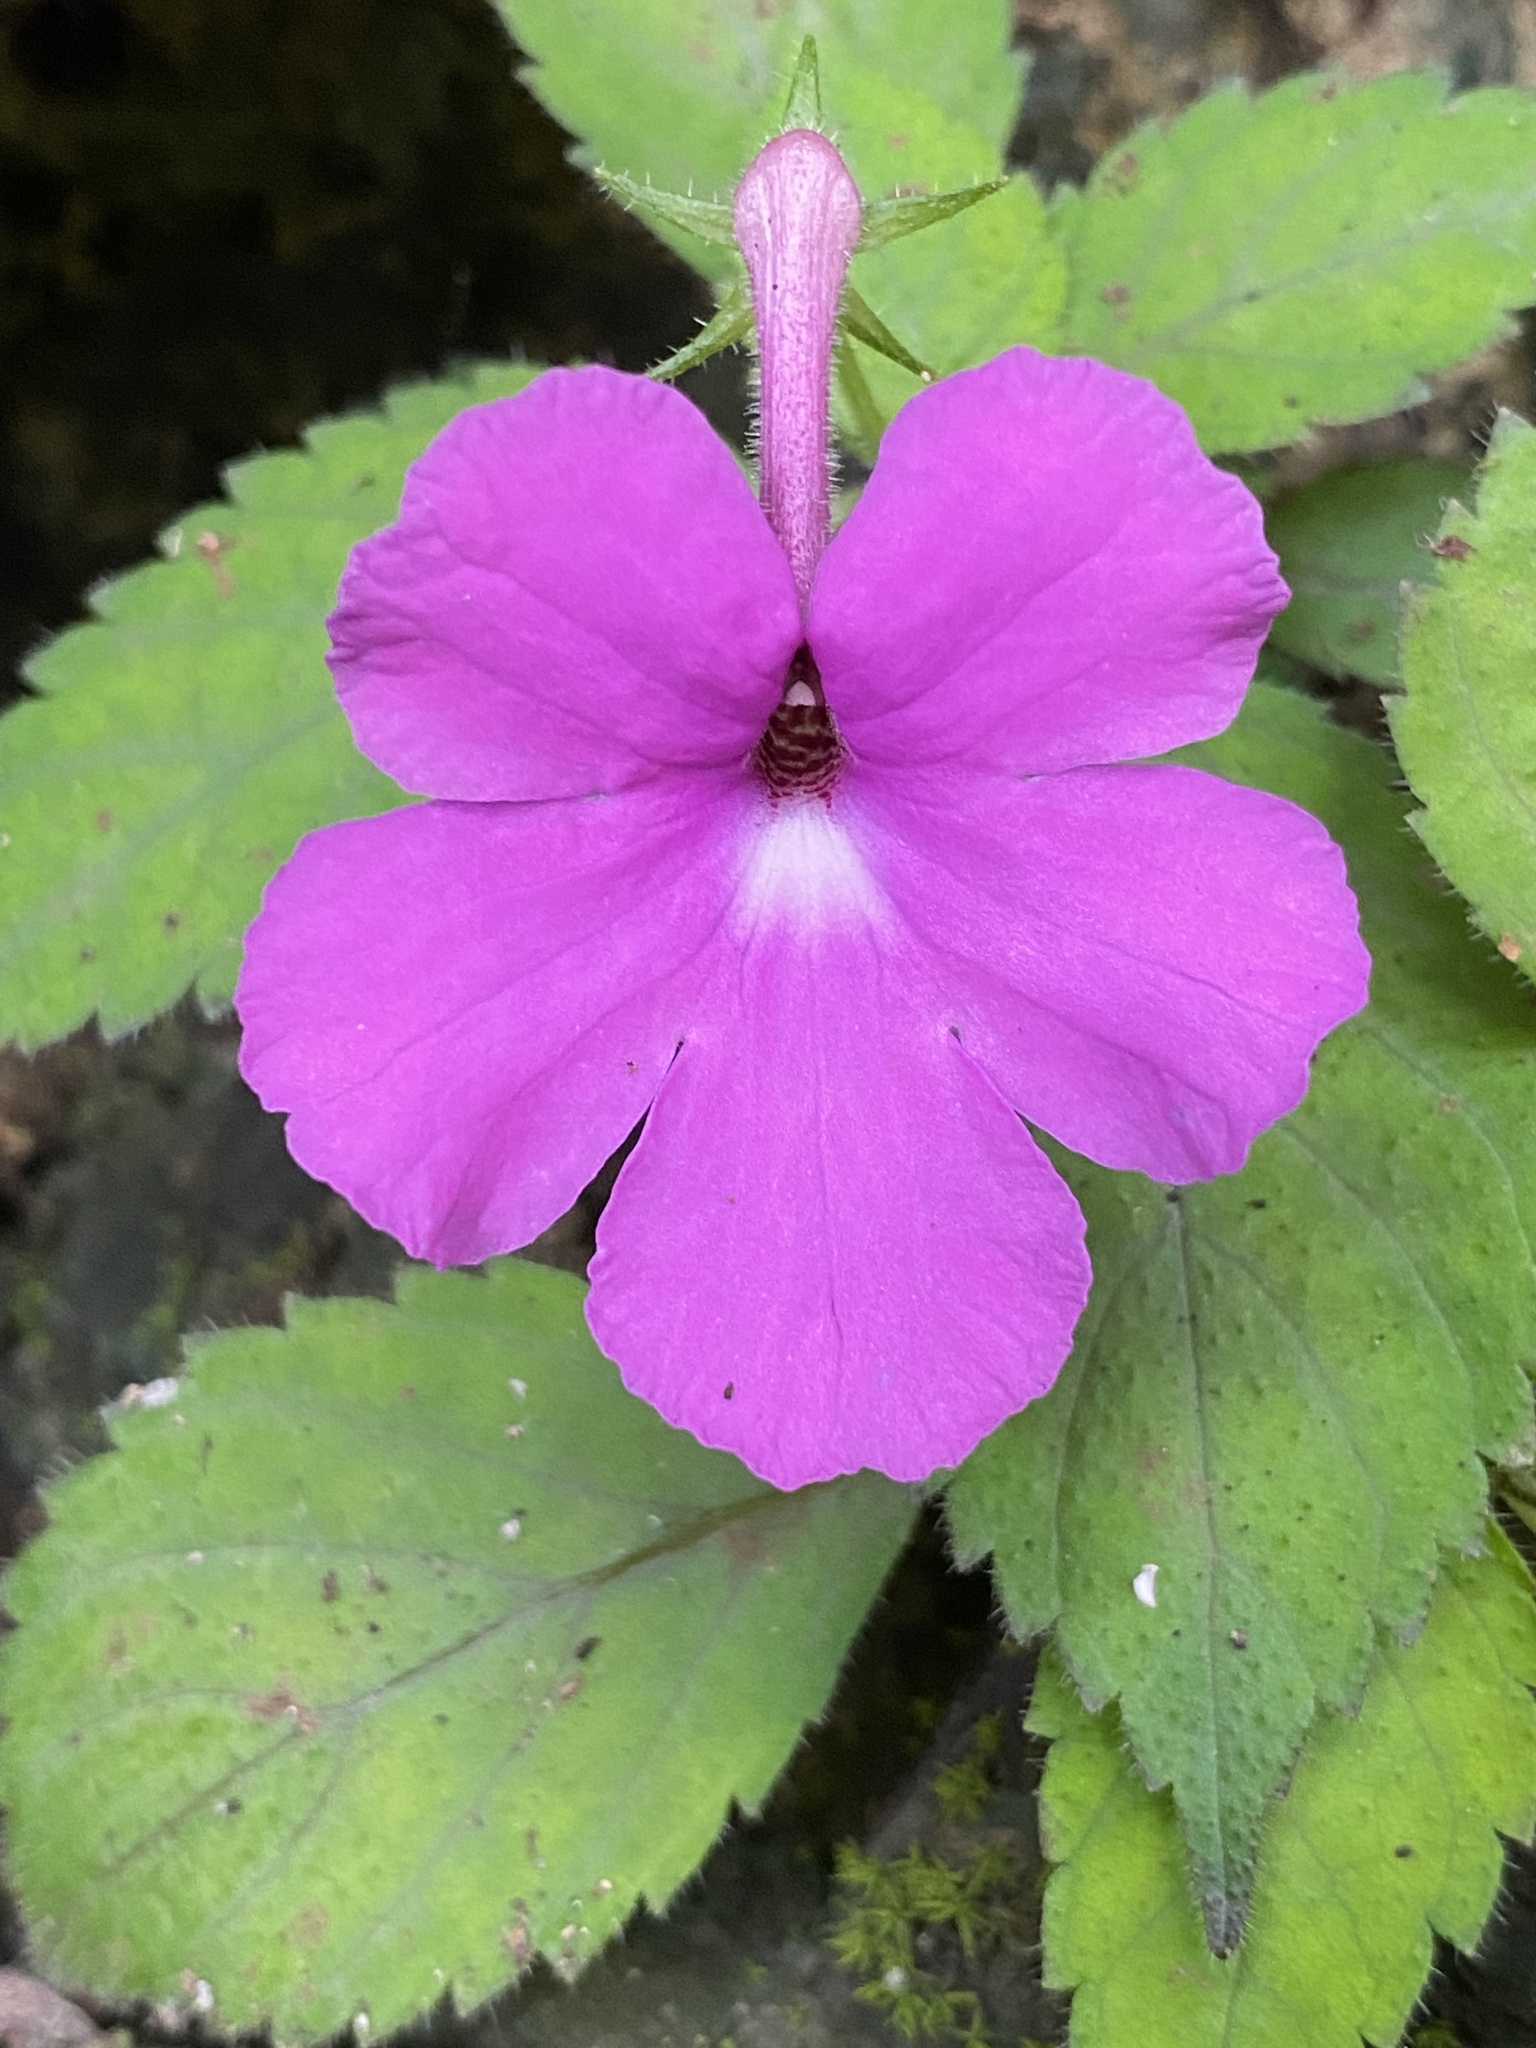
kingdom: Plantae
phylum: Tracheophyta
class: Magnoliopsida
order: Lamiales
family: Gesneriaceae
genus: Achimenes
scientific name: Achimenes grandiflora
